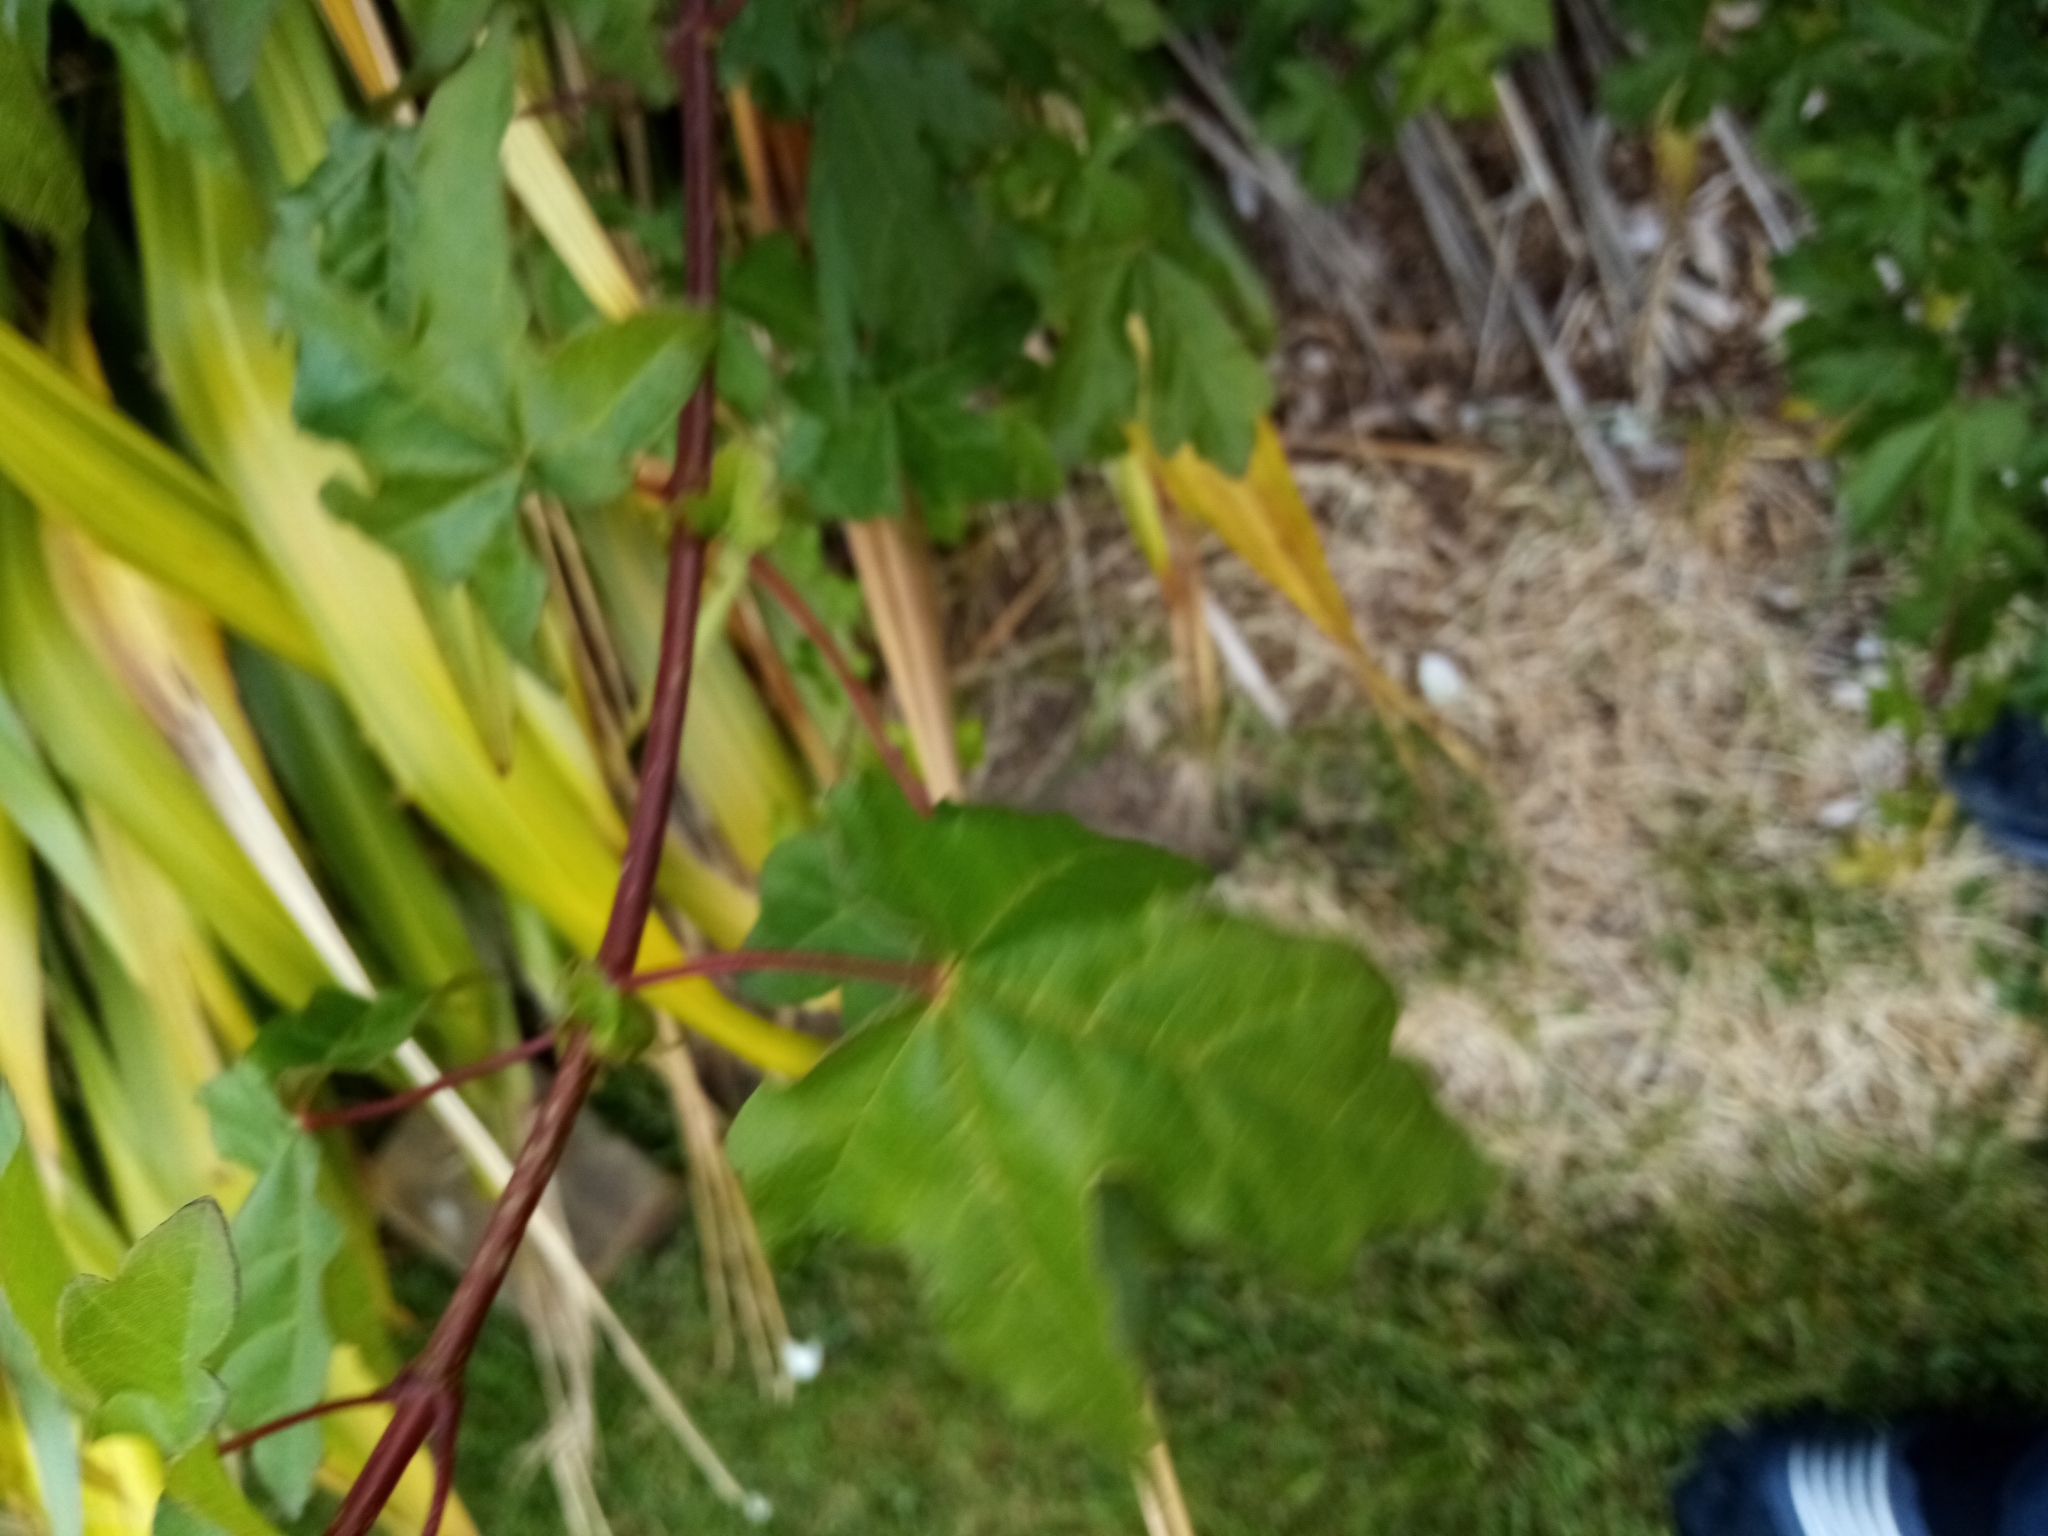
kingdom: Plantae
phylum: Tracheophyta
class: Magnoliopsida
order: Sapindales
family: Sapindaceae
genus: Acer
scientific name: Acer campestre
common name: Field maple
